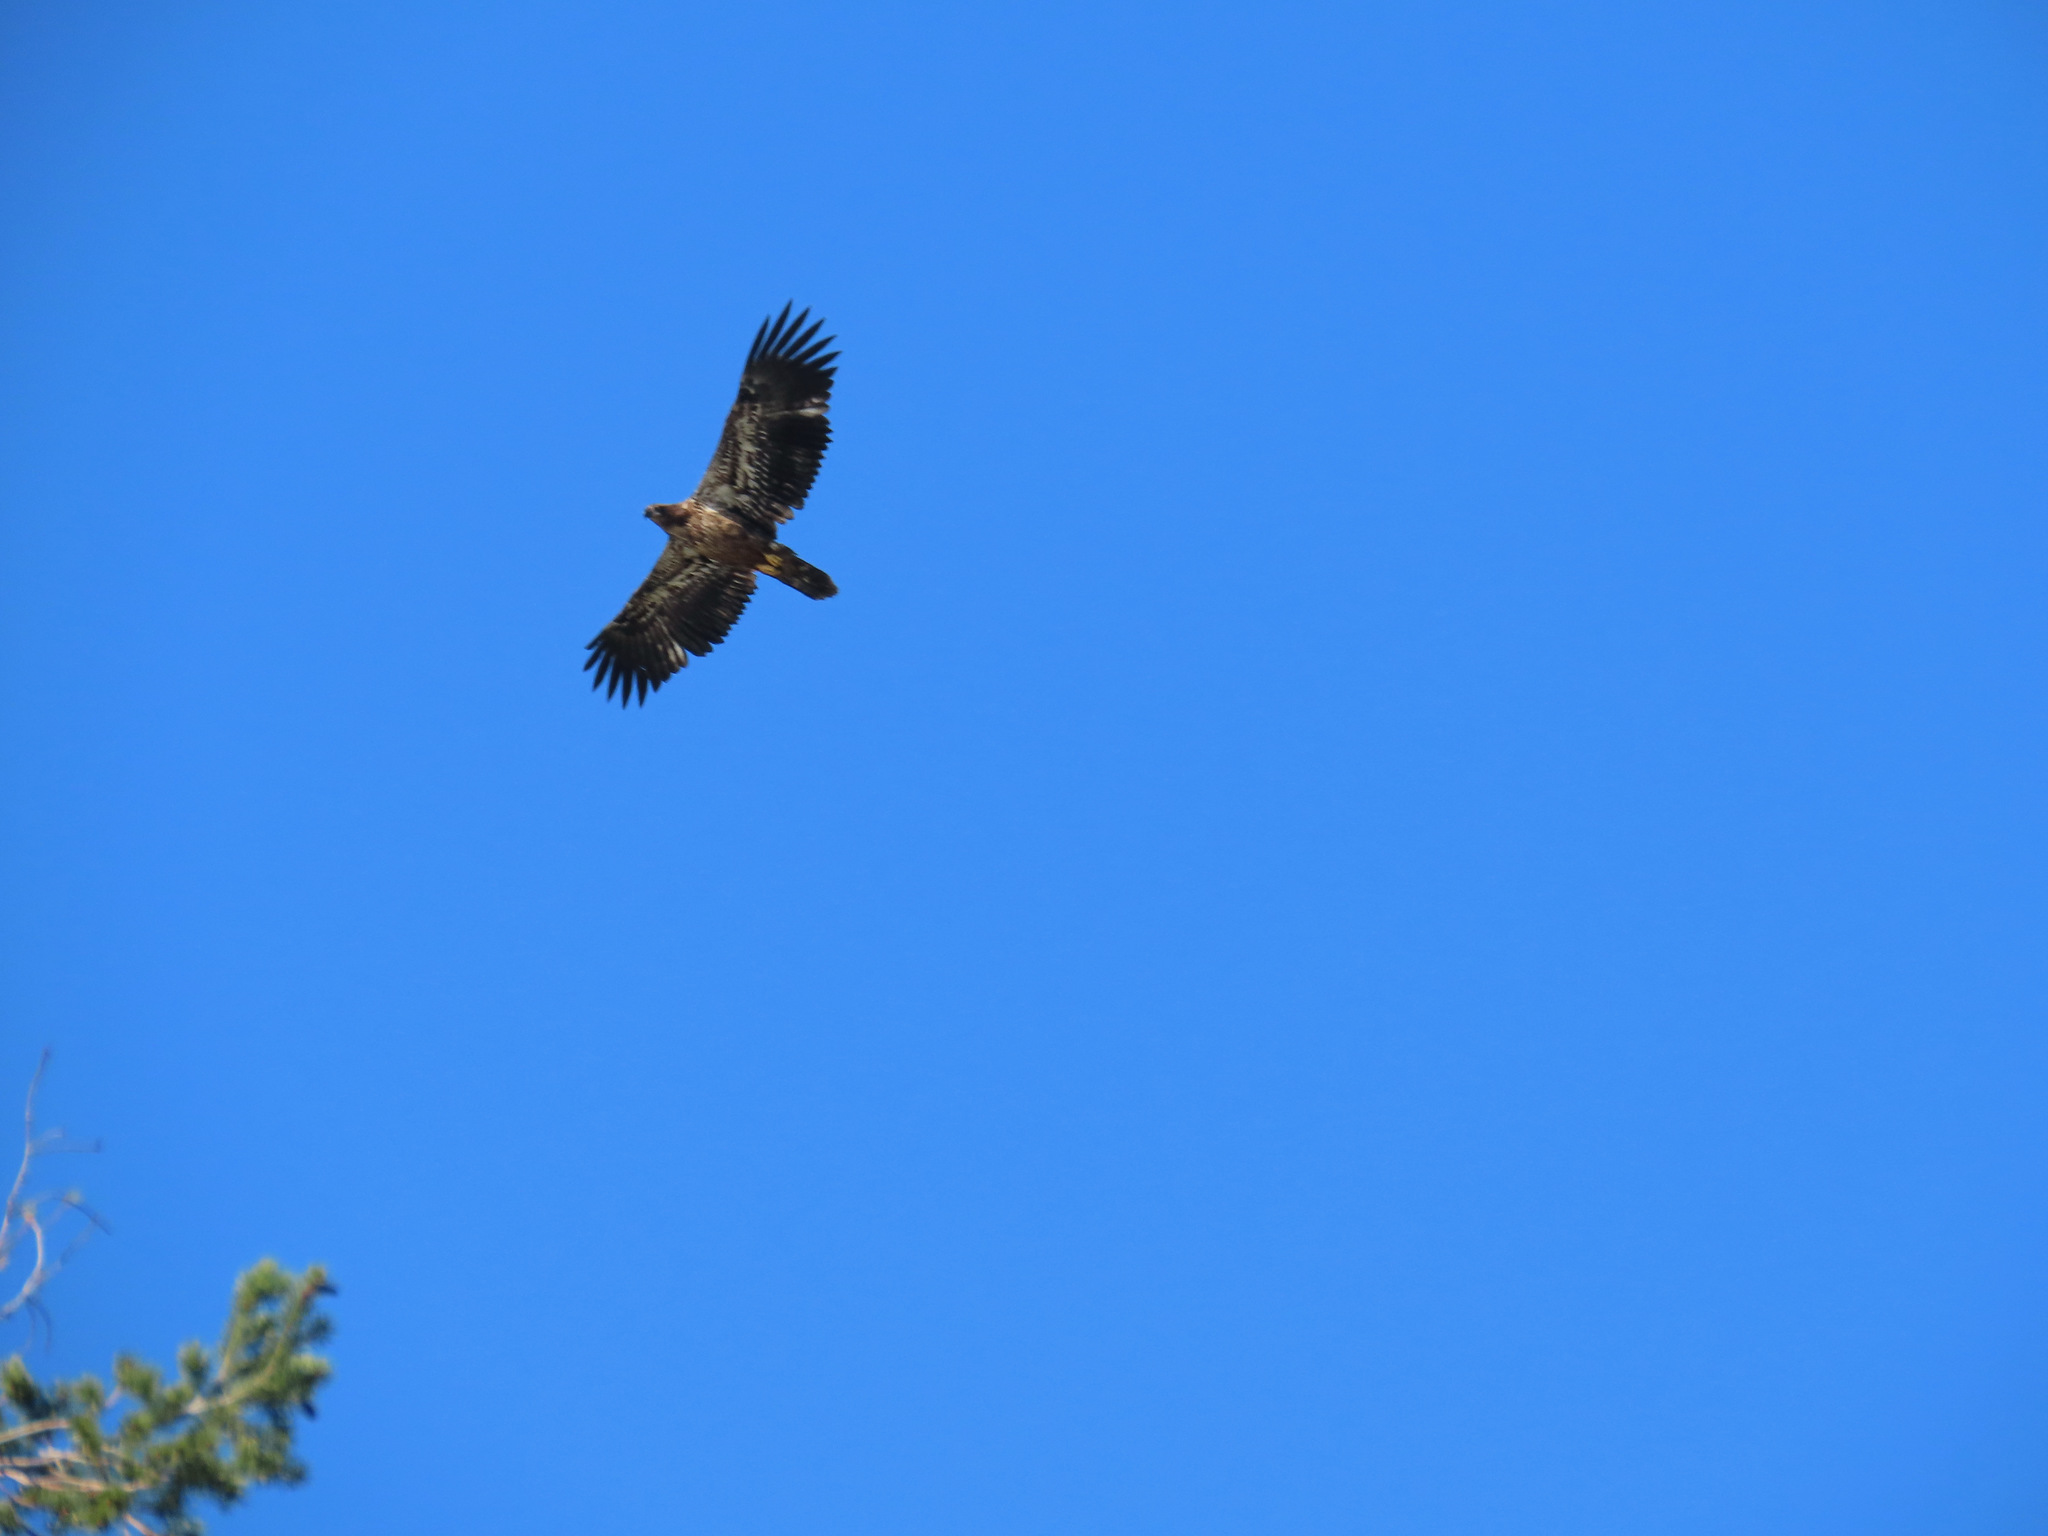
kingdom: Animalia
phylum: Chordata
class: Aves
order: Accipitriformes
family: Accipitridae
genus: Haliaeetus
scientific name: Haliaeetus leucocephalus
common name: Bald eagle
